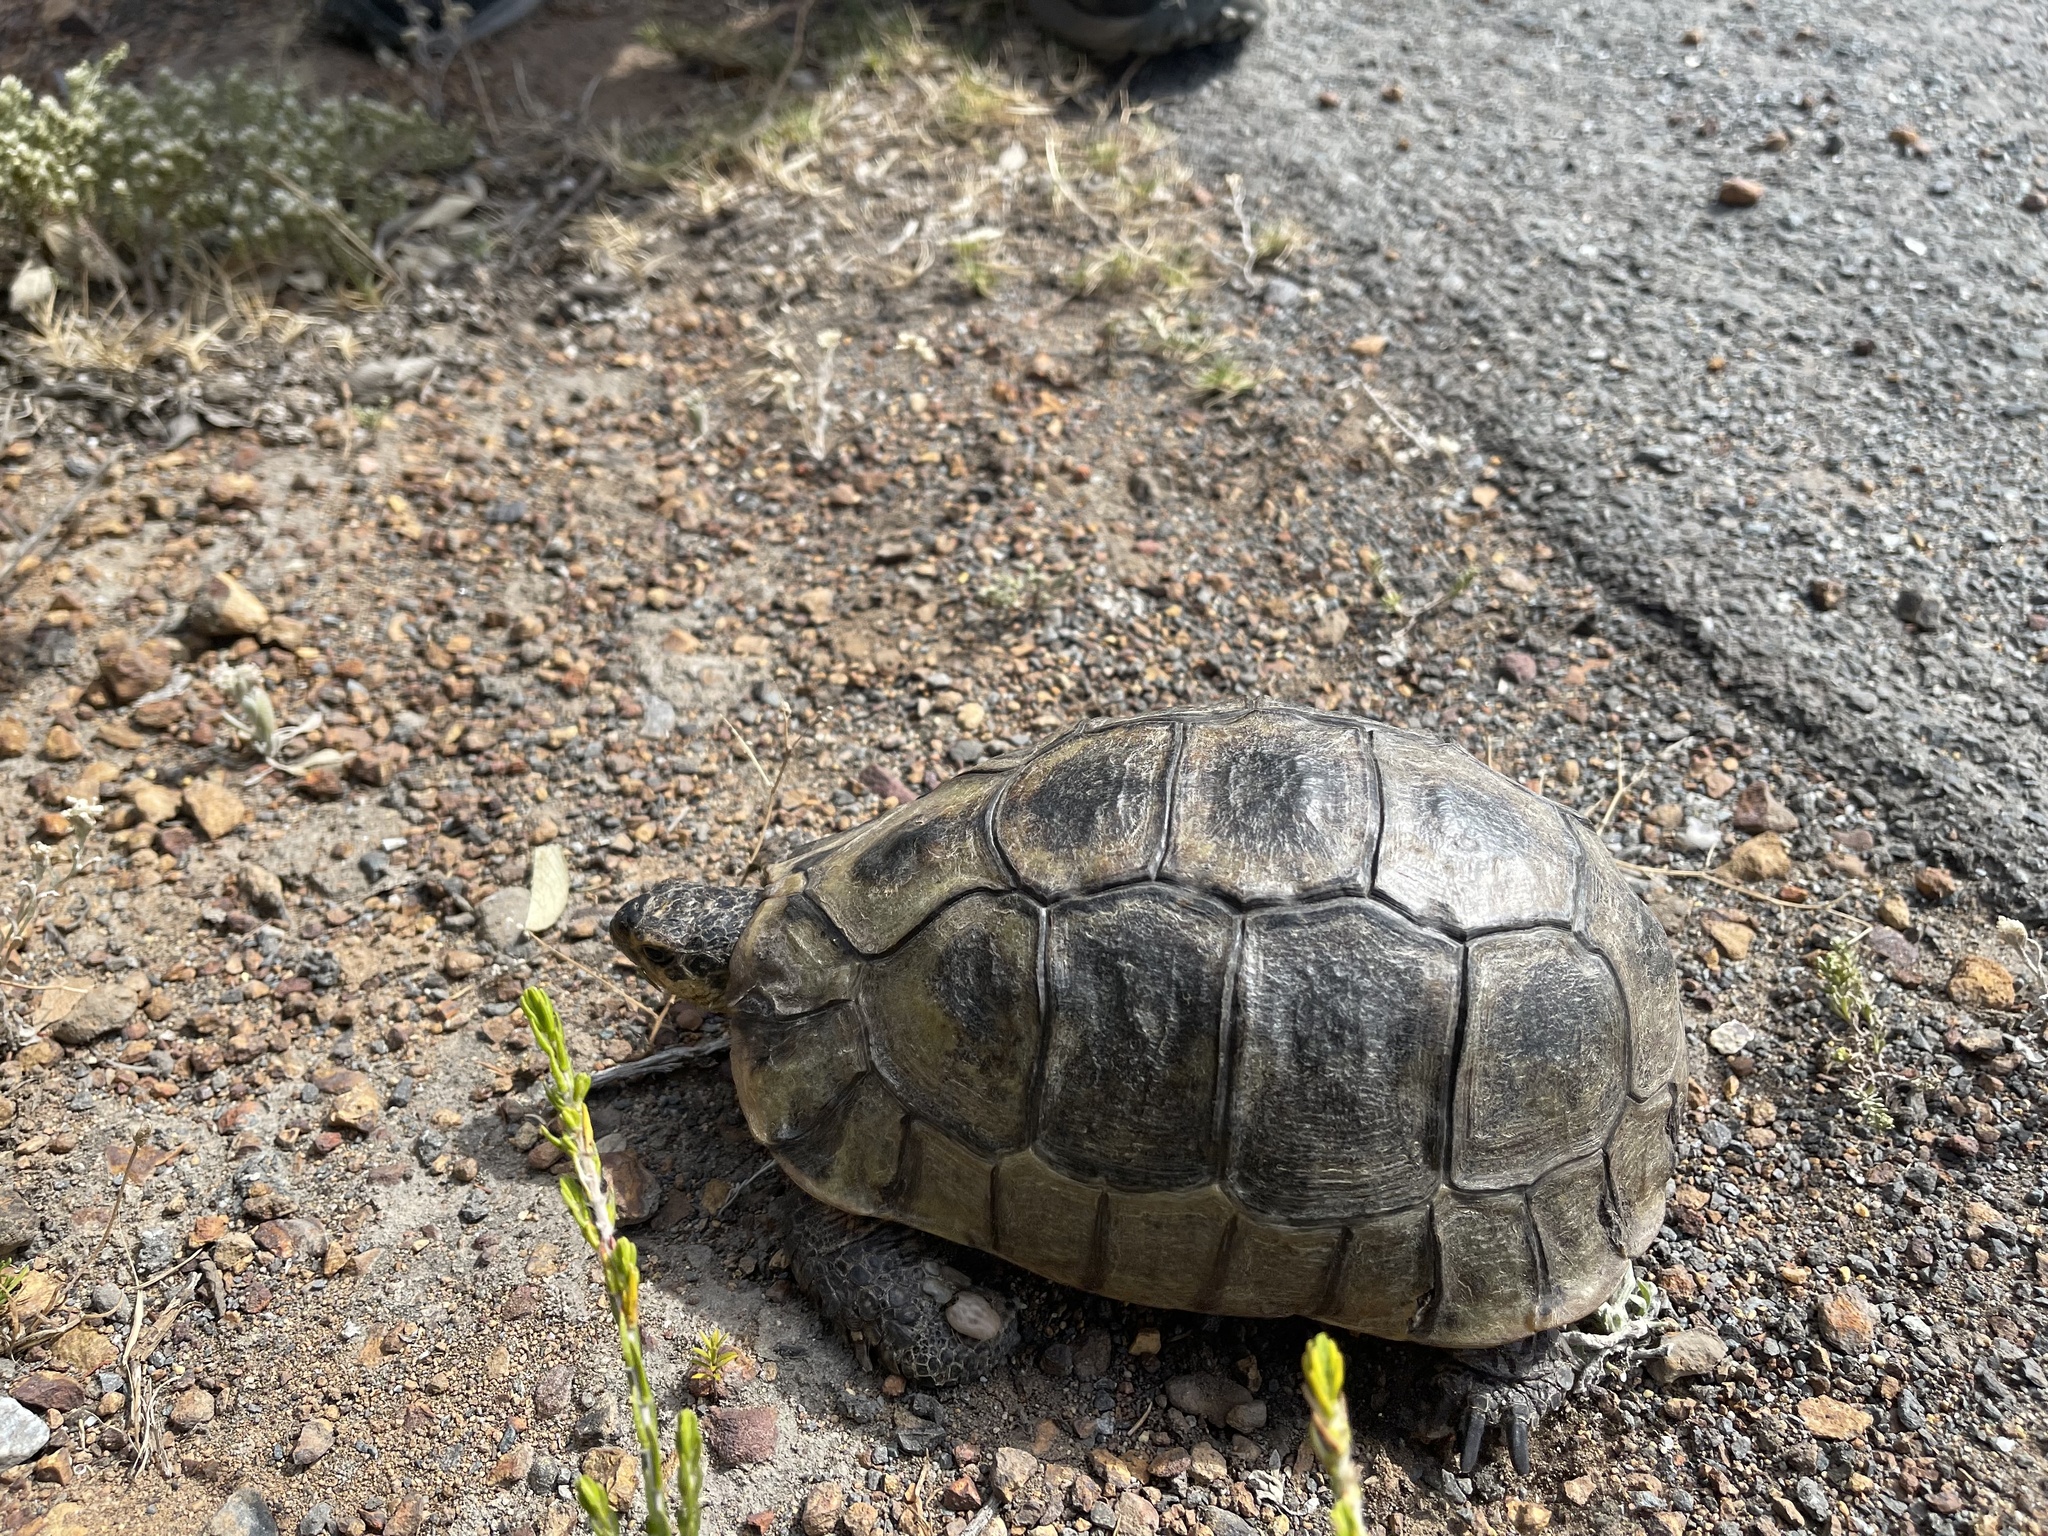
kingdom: Animalia
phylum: Chordata
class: Testudines
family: Testudinidae
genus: Chersina
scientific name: Chersina angulata
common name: South african bowsprit tortoise
